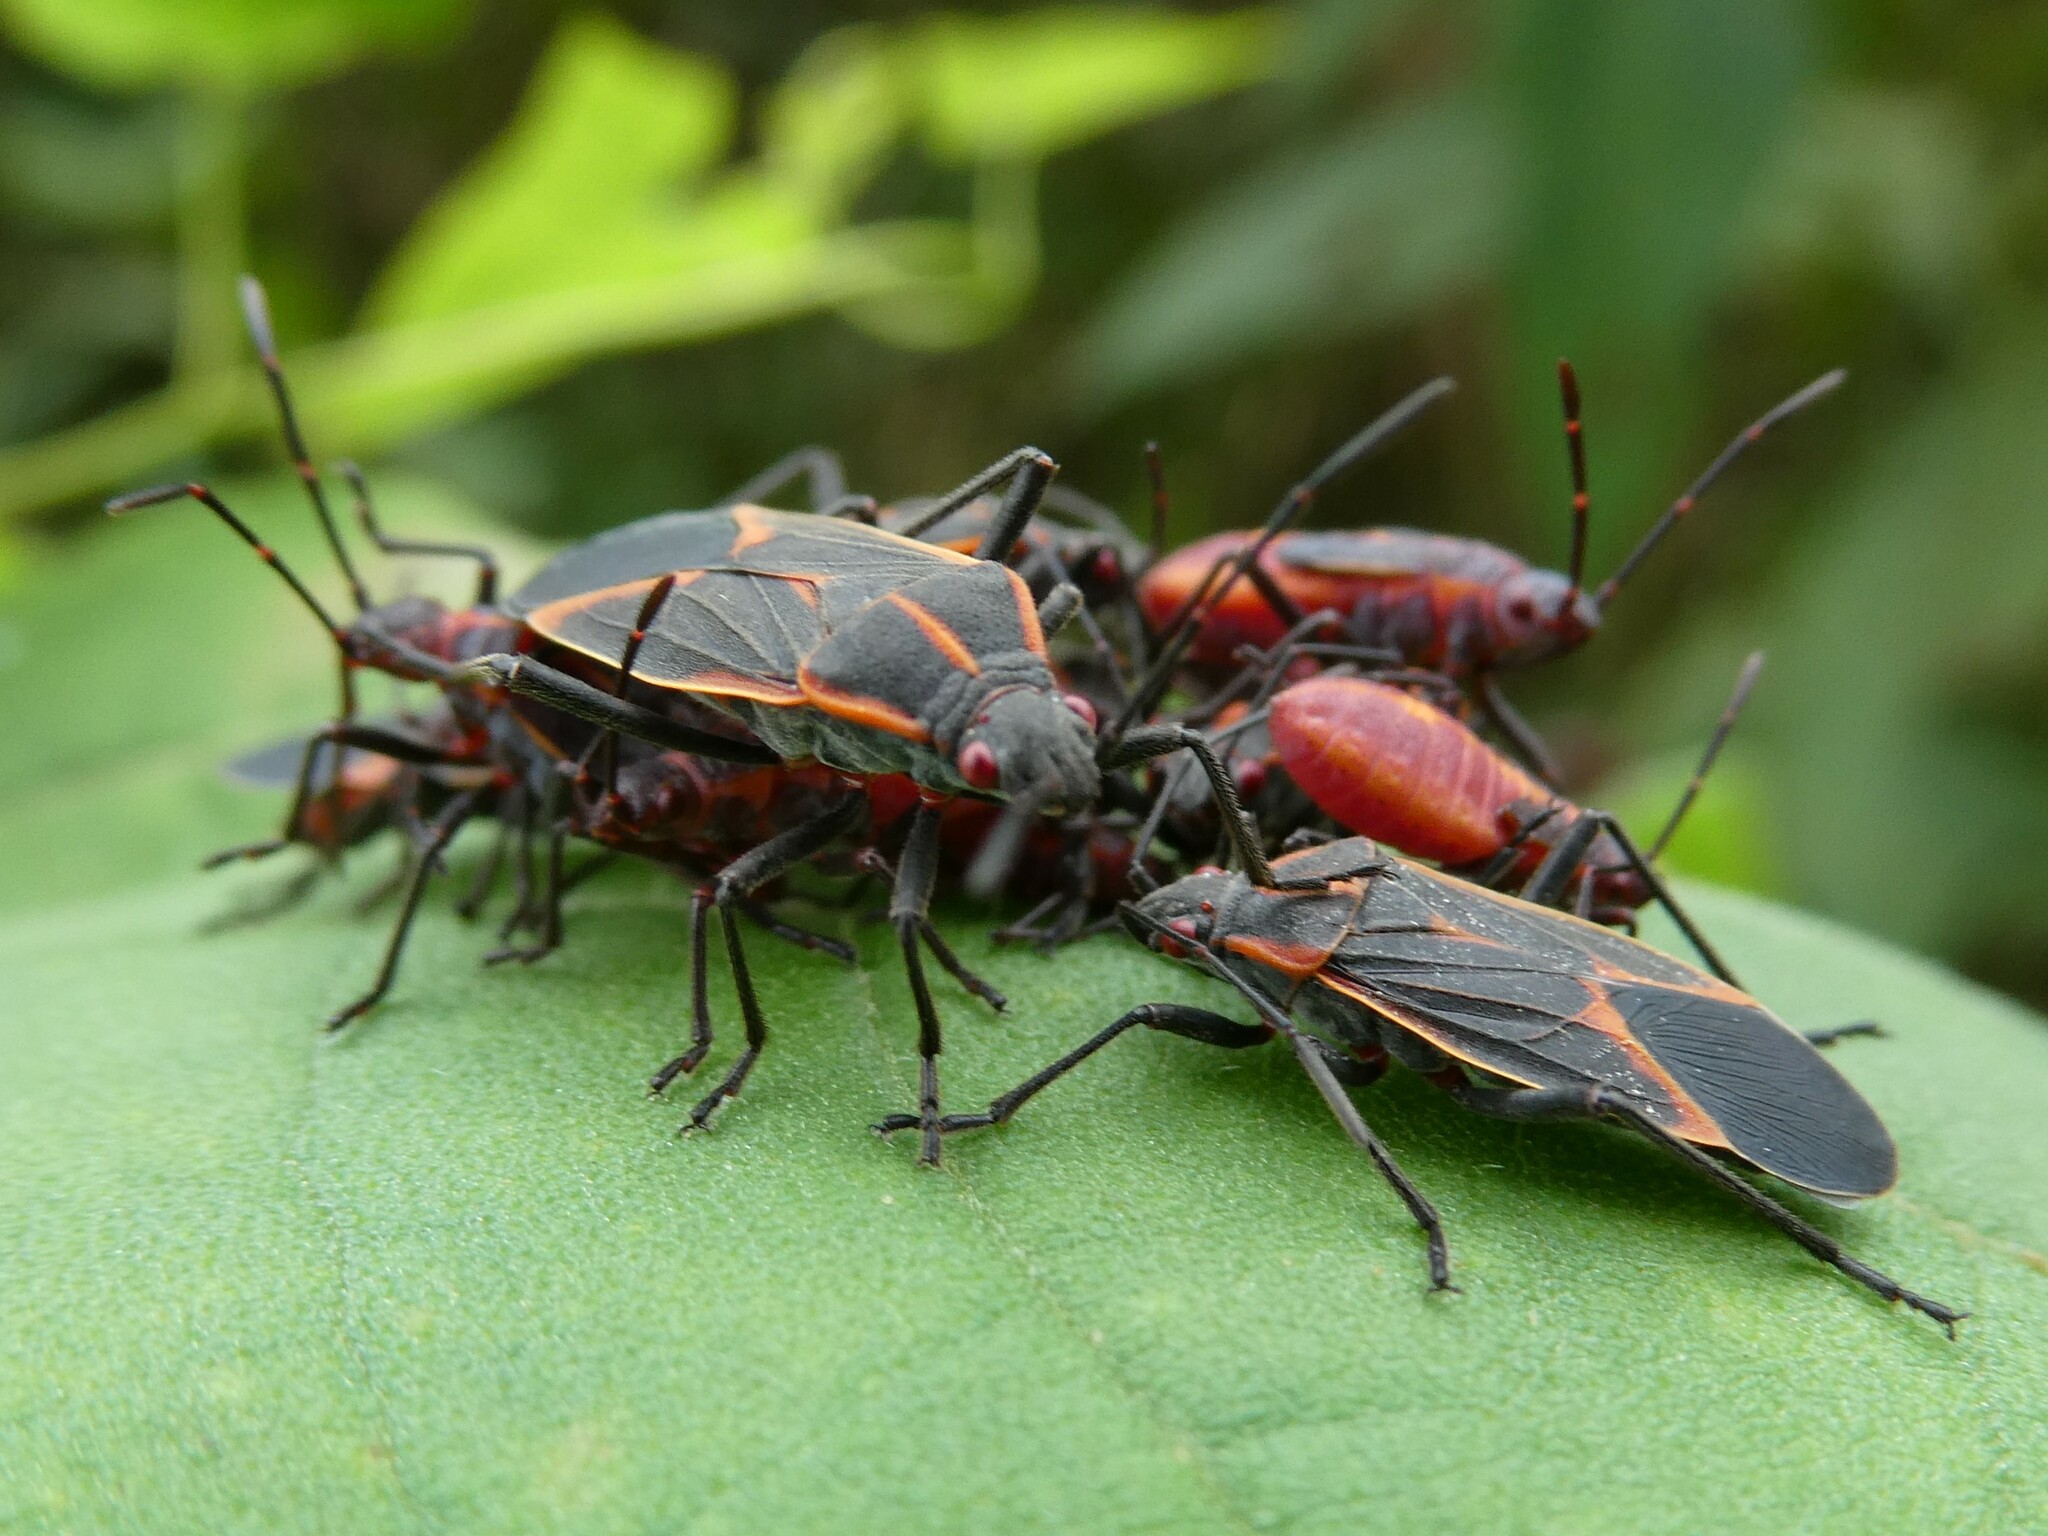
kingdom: Animalia
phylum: Arthropoda
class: Insecta
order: Hemiptera
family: Rhopalidae
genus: Boisea
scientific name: Boisea trivittata
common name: Boxelder bug
